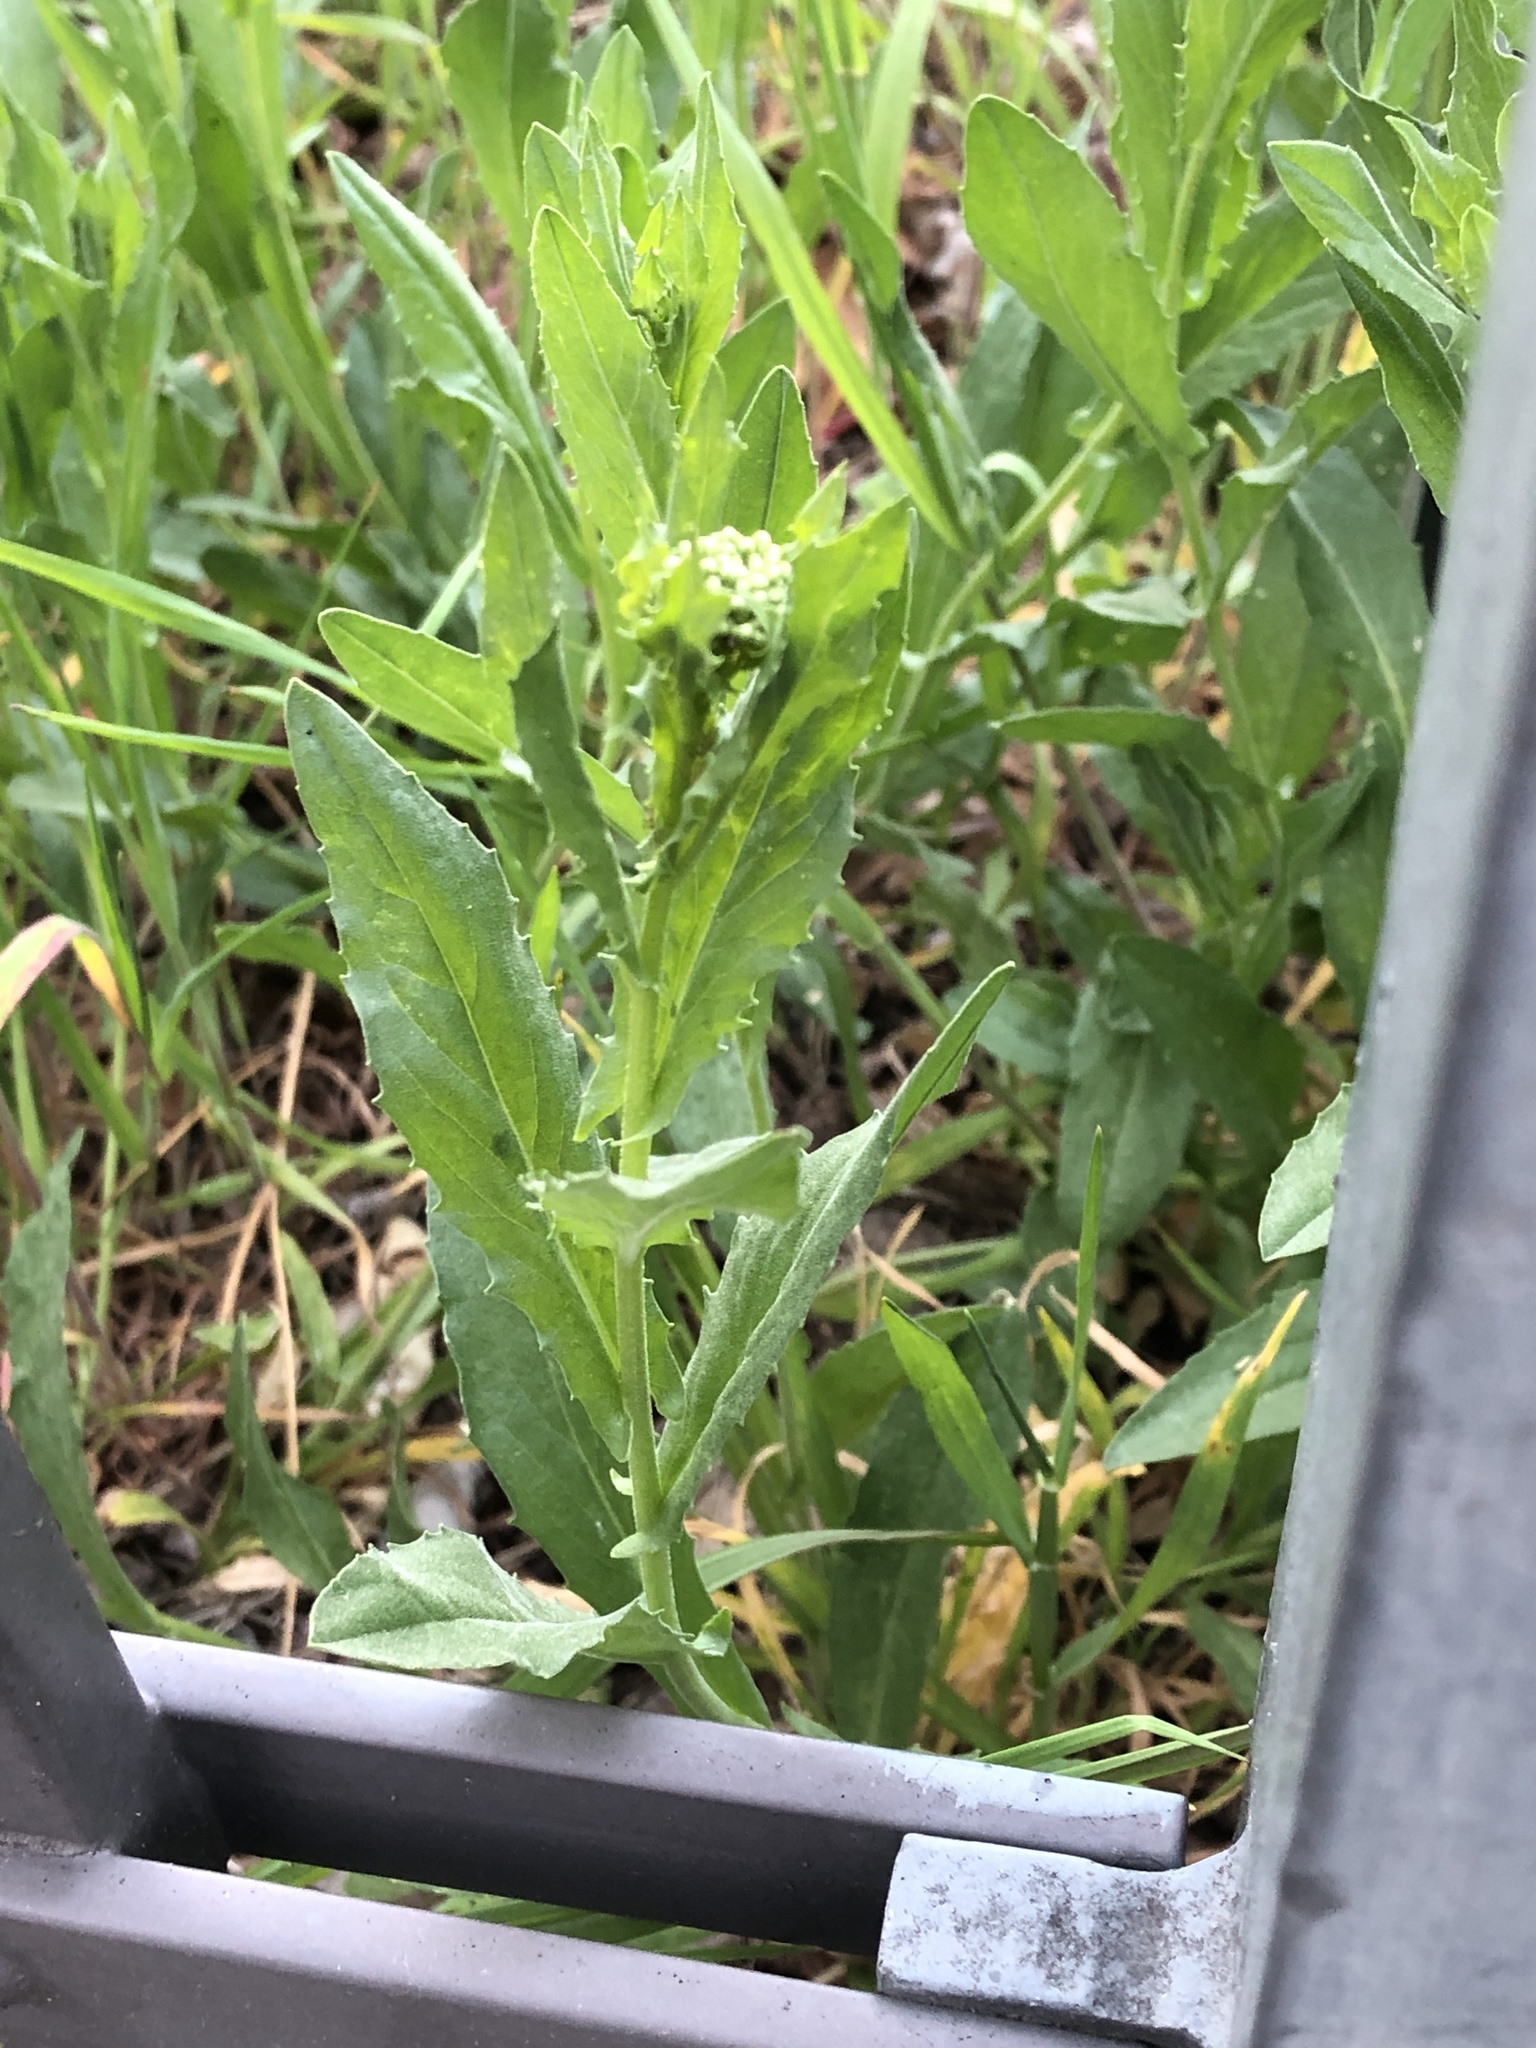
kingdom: Plantae
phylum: Tracheophyta
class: Magnoliopsida
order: Brassicales
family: Brassicaceae
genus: Lepidium
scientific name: Lepidium draba
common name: Hoary cress
